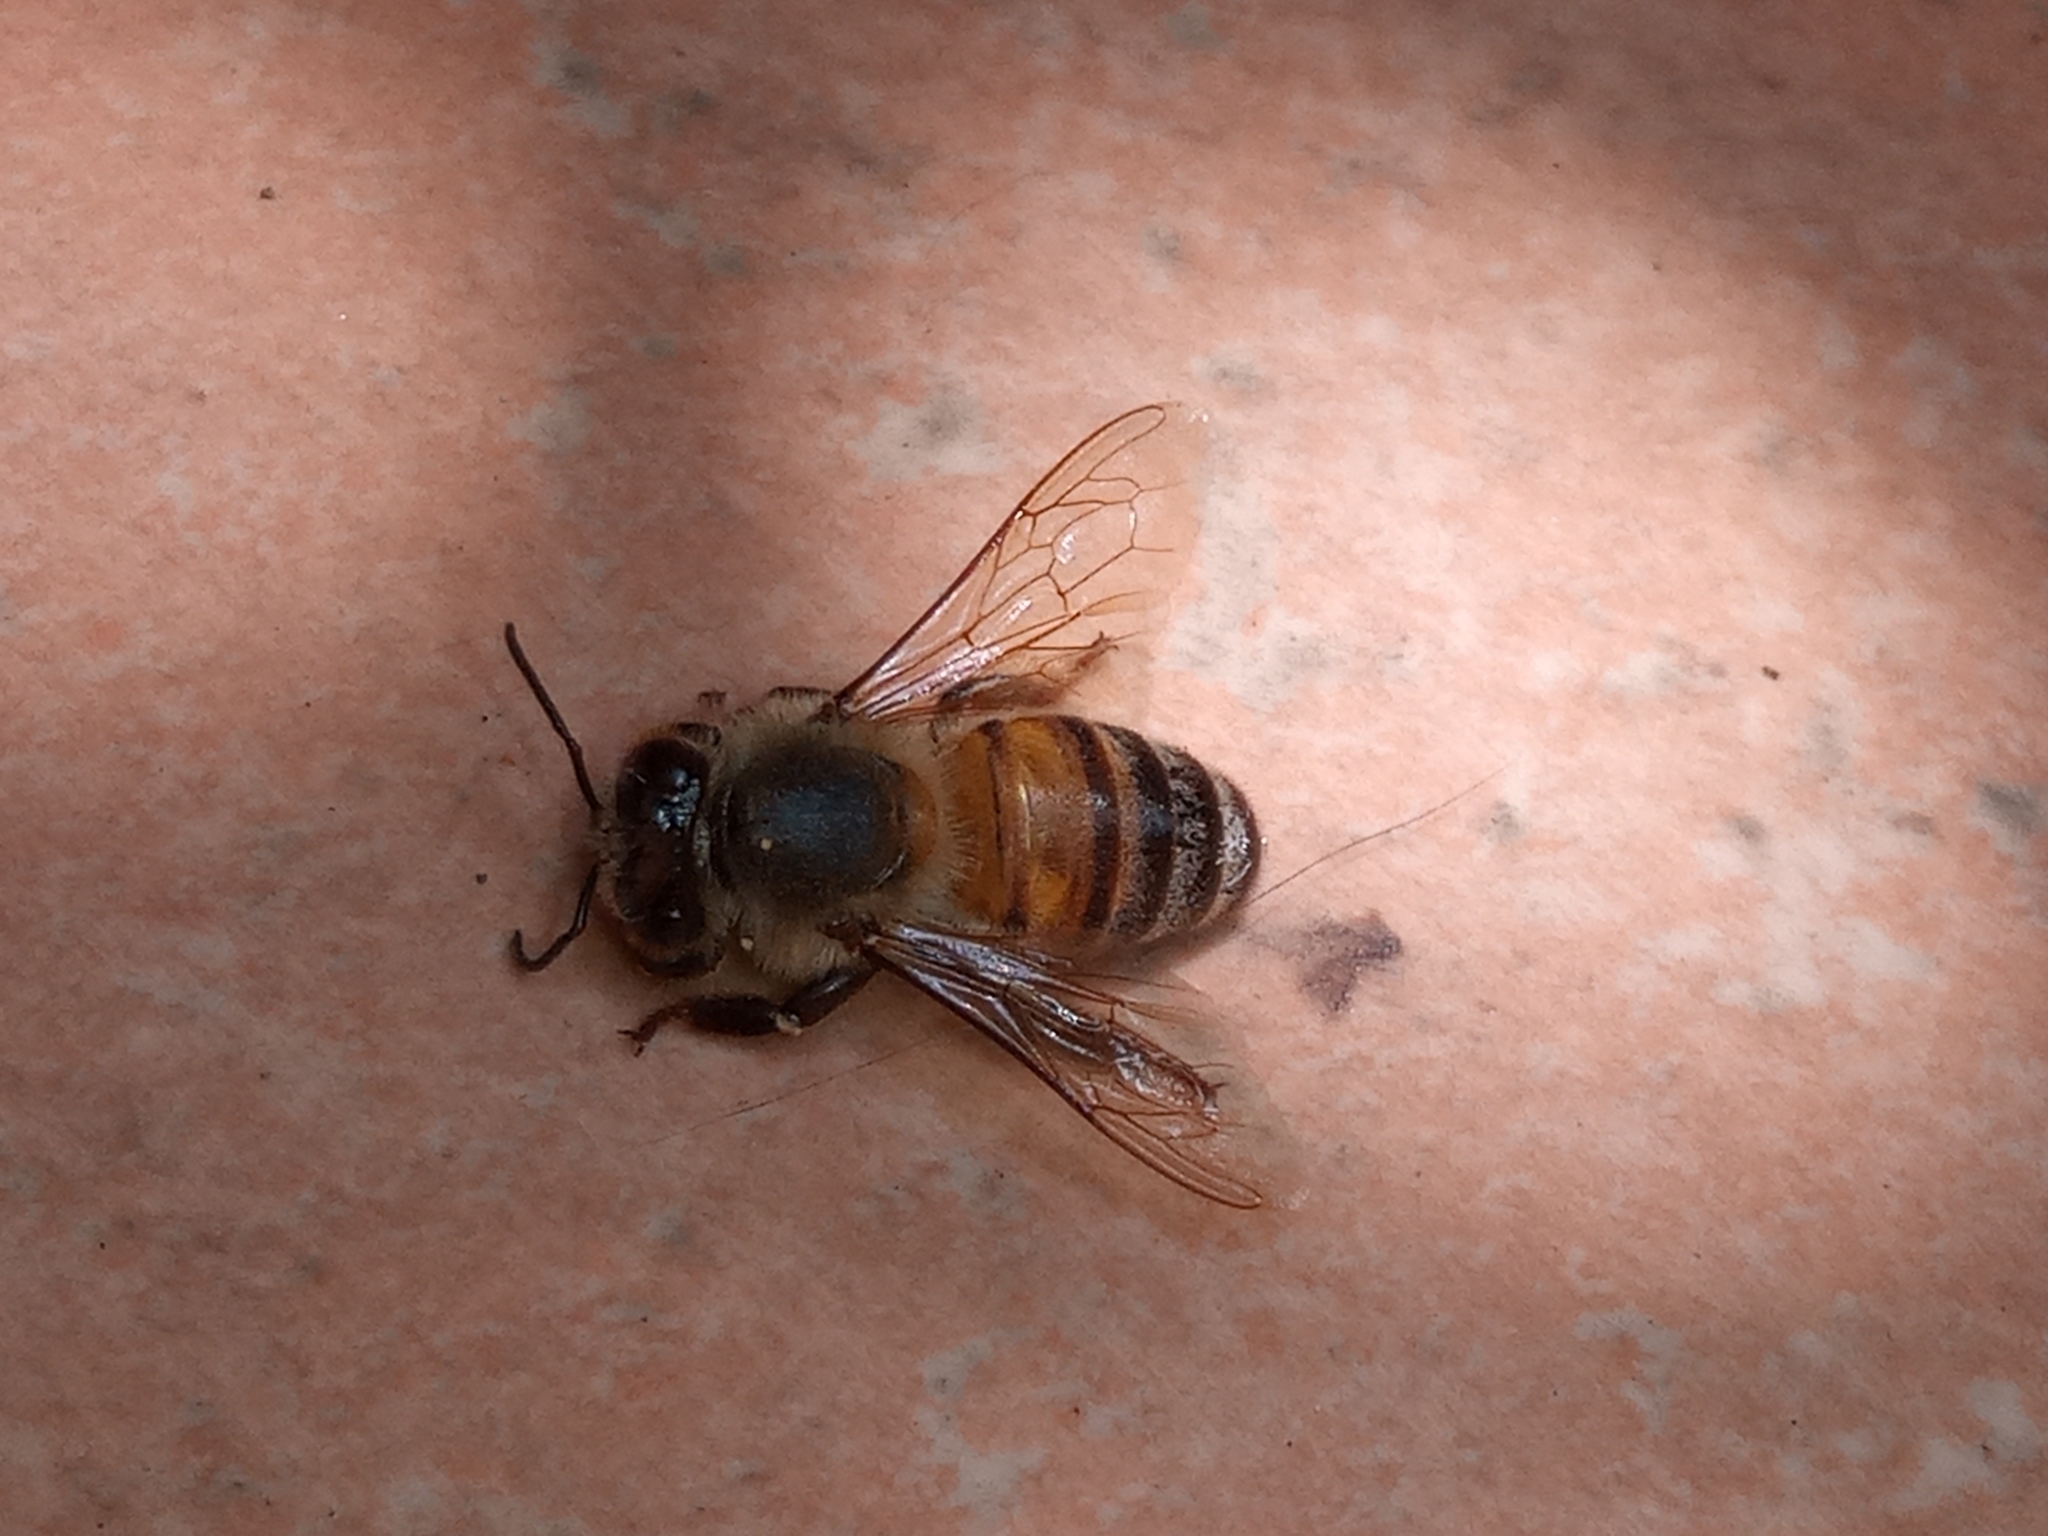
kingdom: Animalia
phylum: Arthropoda
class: Insecta
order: Hymenoptera
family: Apidae
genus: Apis
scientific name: Apis mellifera
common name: Honey bee
